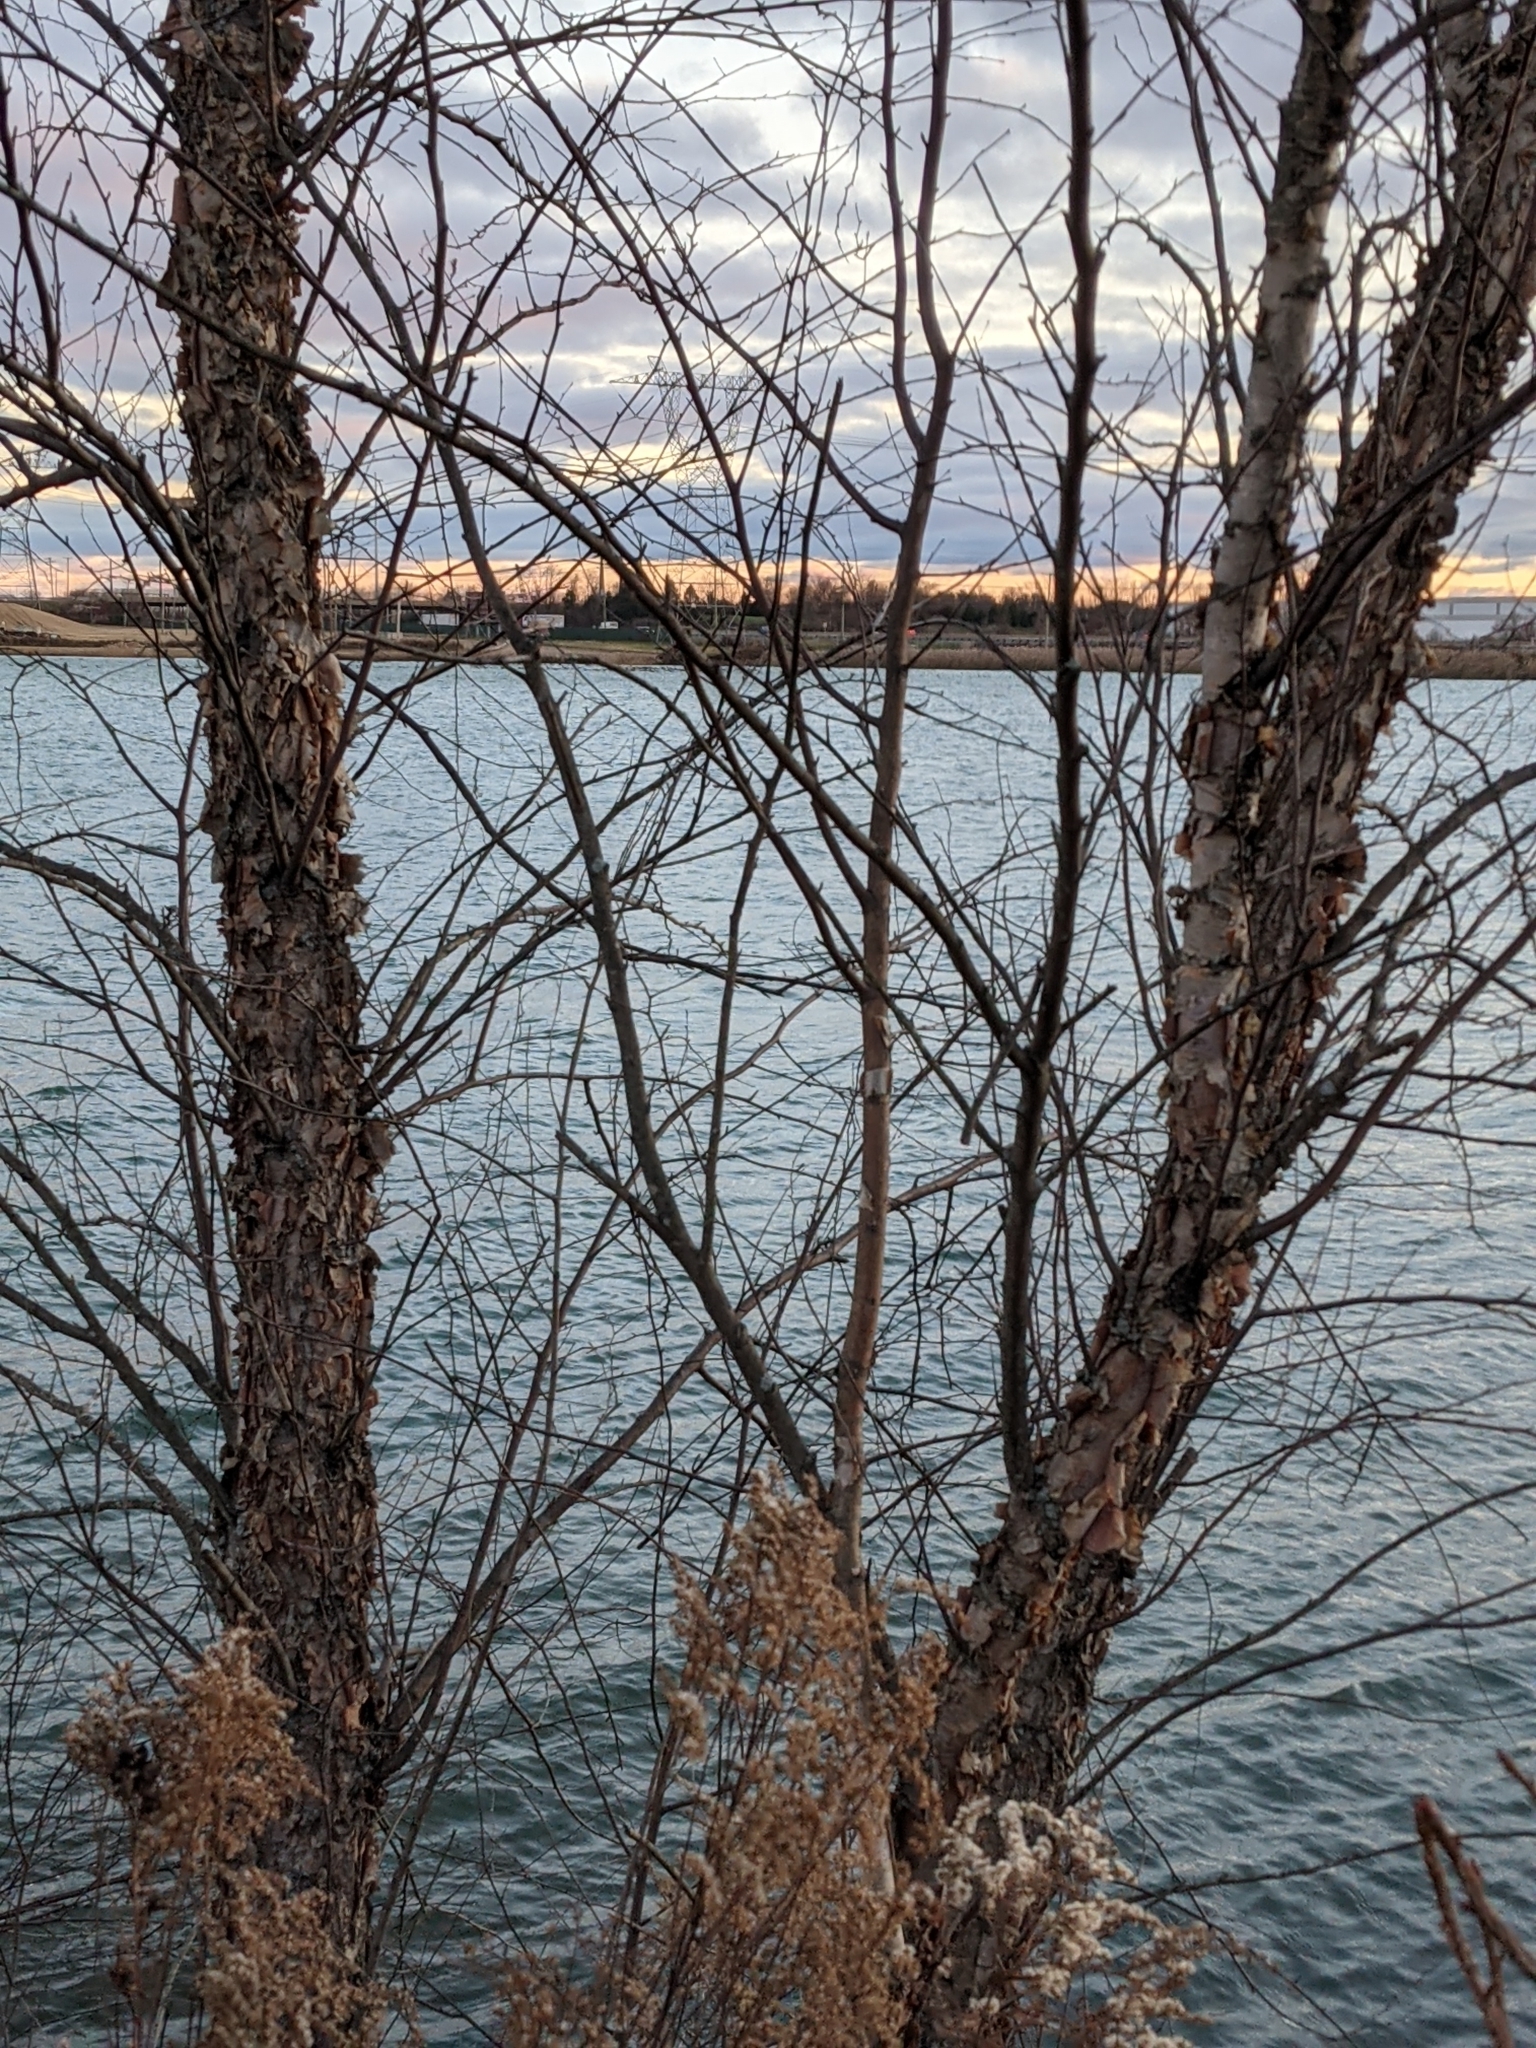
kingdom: Plantae
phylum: Tracheophyta
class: Magnoliopsida
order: Fagales
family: Betulaceae
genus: Betula
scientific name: Betula nigra
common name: Black birch
